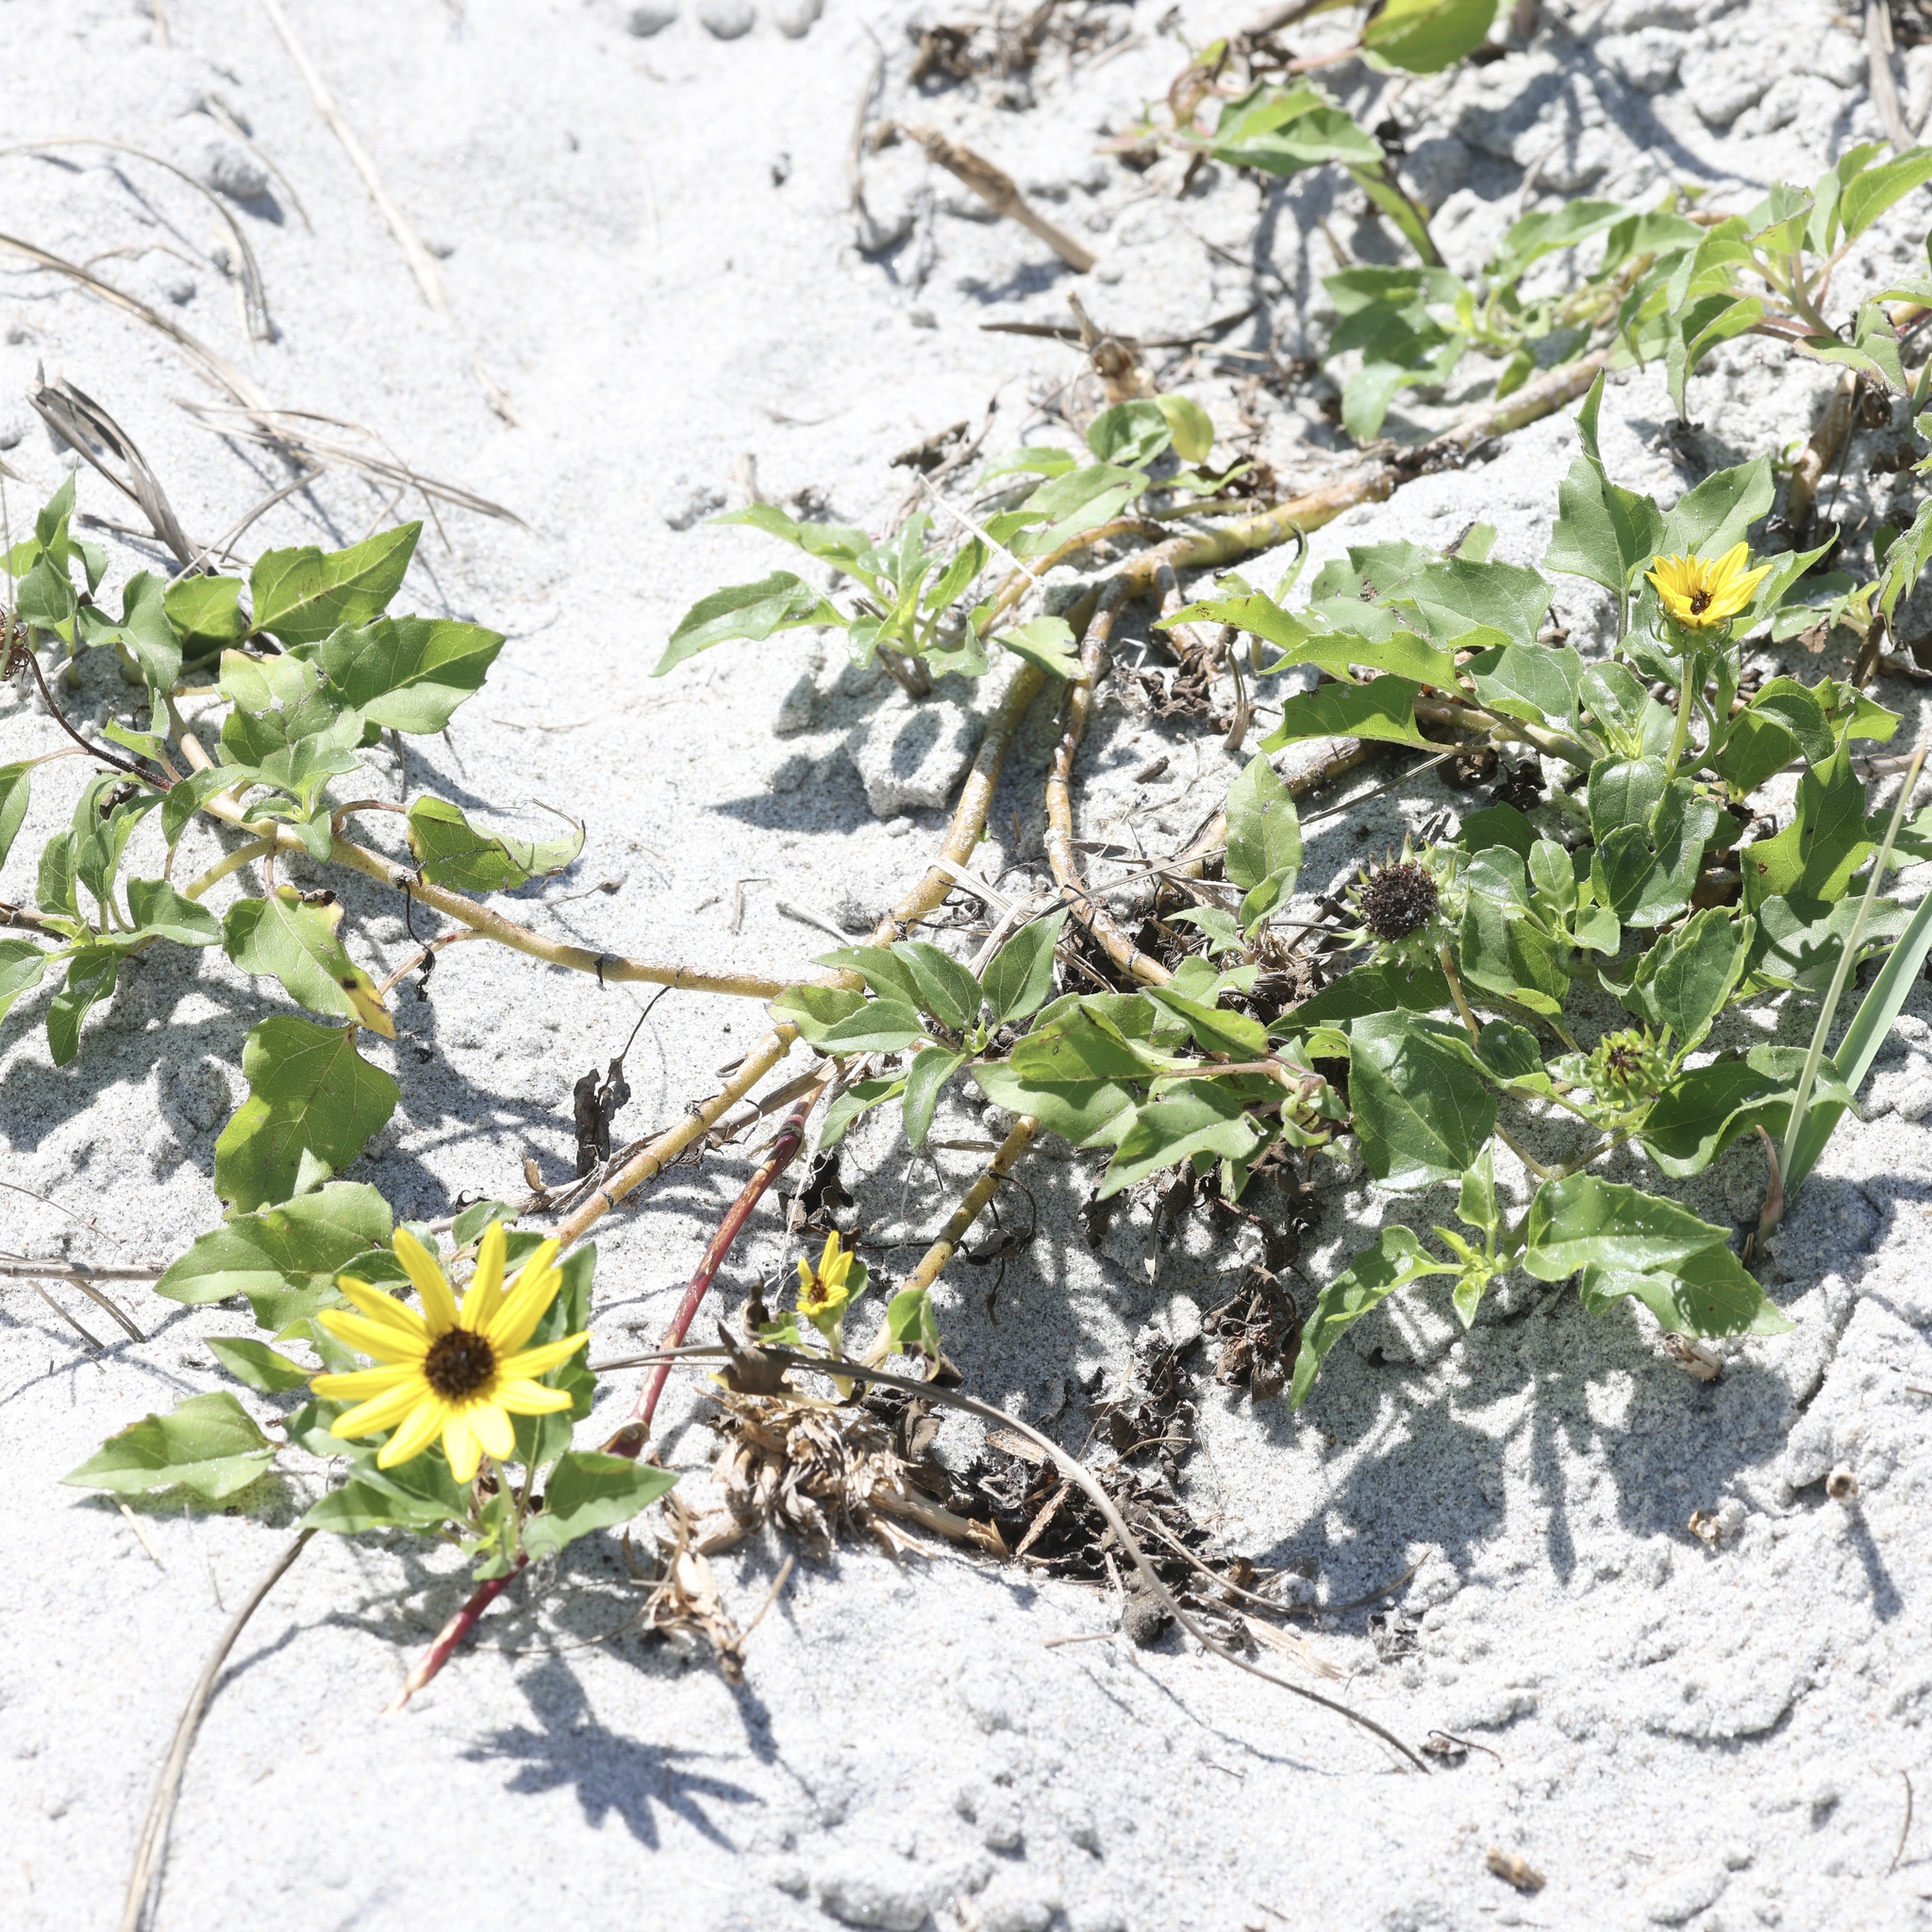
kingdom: Plantae
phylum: Tracheophyta
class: Magnoliopsida
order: Asterales
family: Asteraceae
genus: Helianthus
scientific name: Helianthus debilis
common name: Weak sunflower
